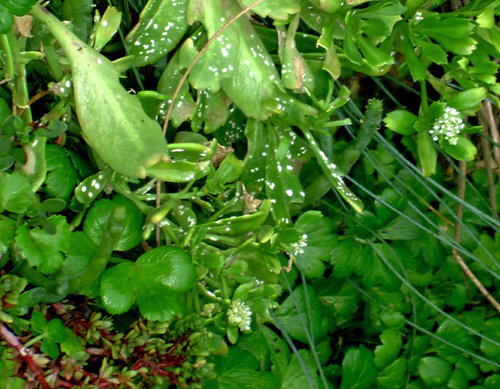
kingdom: Chromista
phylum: Oomycota
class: Peronosporea
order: Albuginales
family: Albuginaceae
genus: Albugo
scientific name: Albugo lepidii
